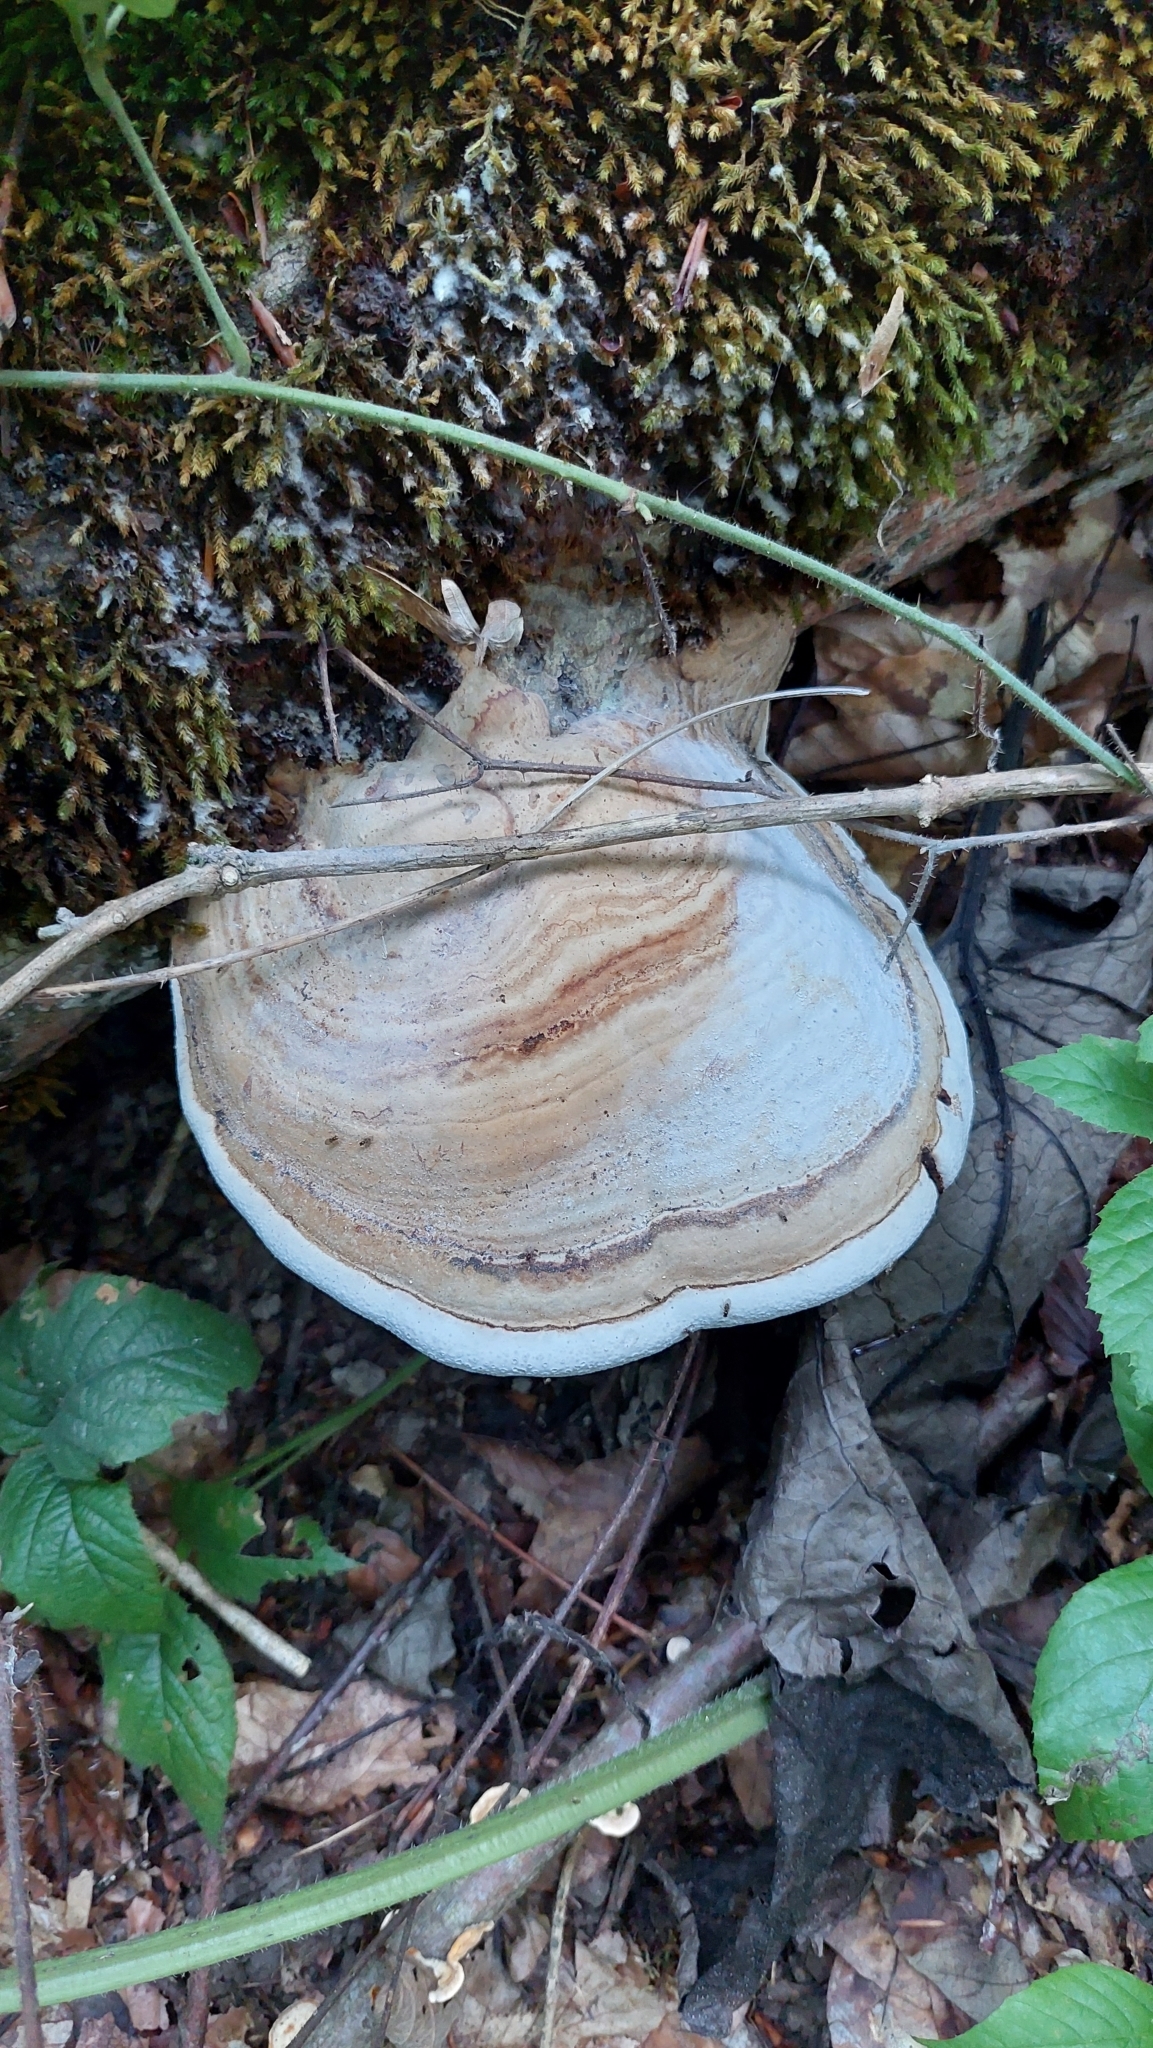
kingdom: Fungi
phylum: Basidiomycota
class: Agaricomycetes
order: Polyporales
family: Polyporaceae
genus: Fomes
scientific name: Fomes fomentarius
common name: Hoof fungus
